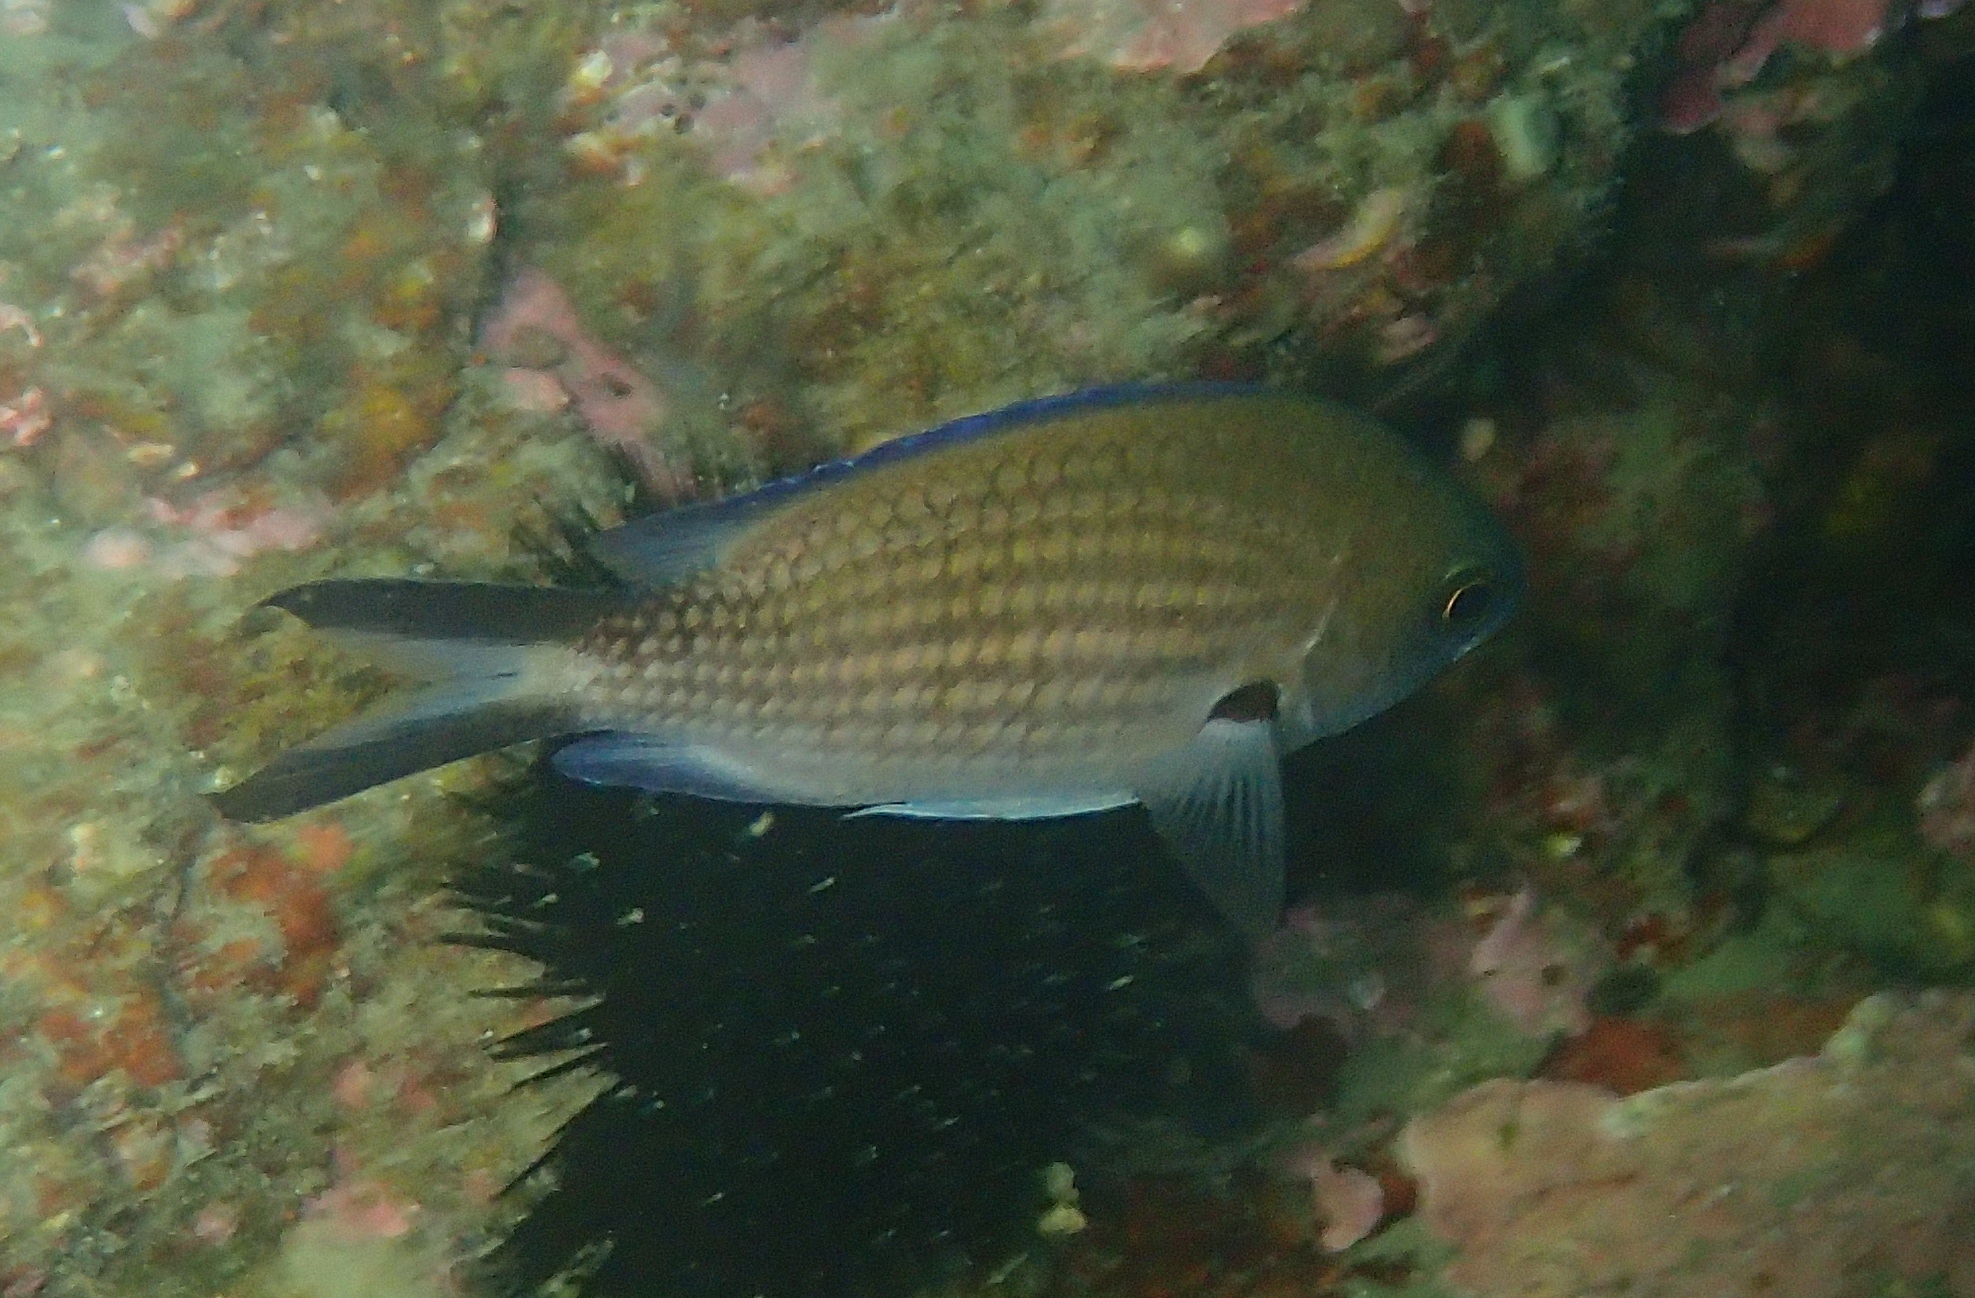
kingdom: Animalia
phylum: Chordata
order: Perciformes
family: Pomacentridae
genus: Chromis
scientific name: Chromis chromis
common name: Damselfish
